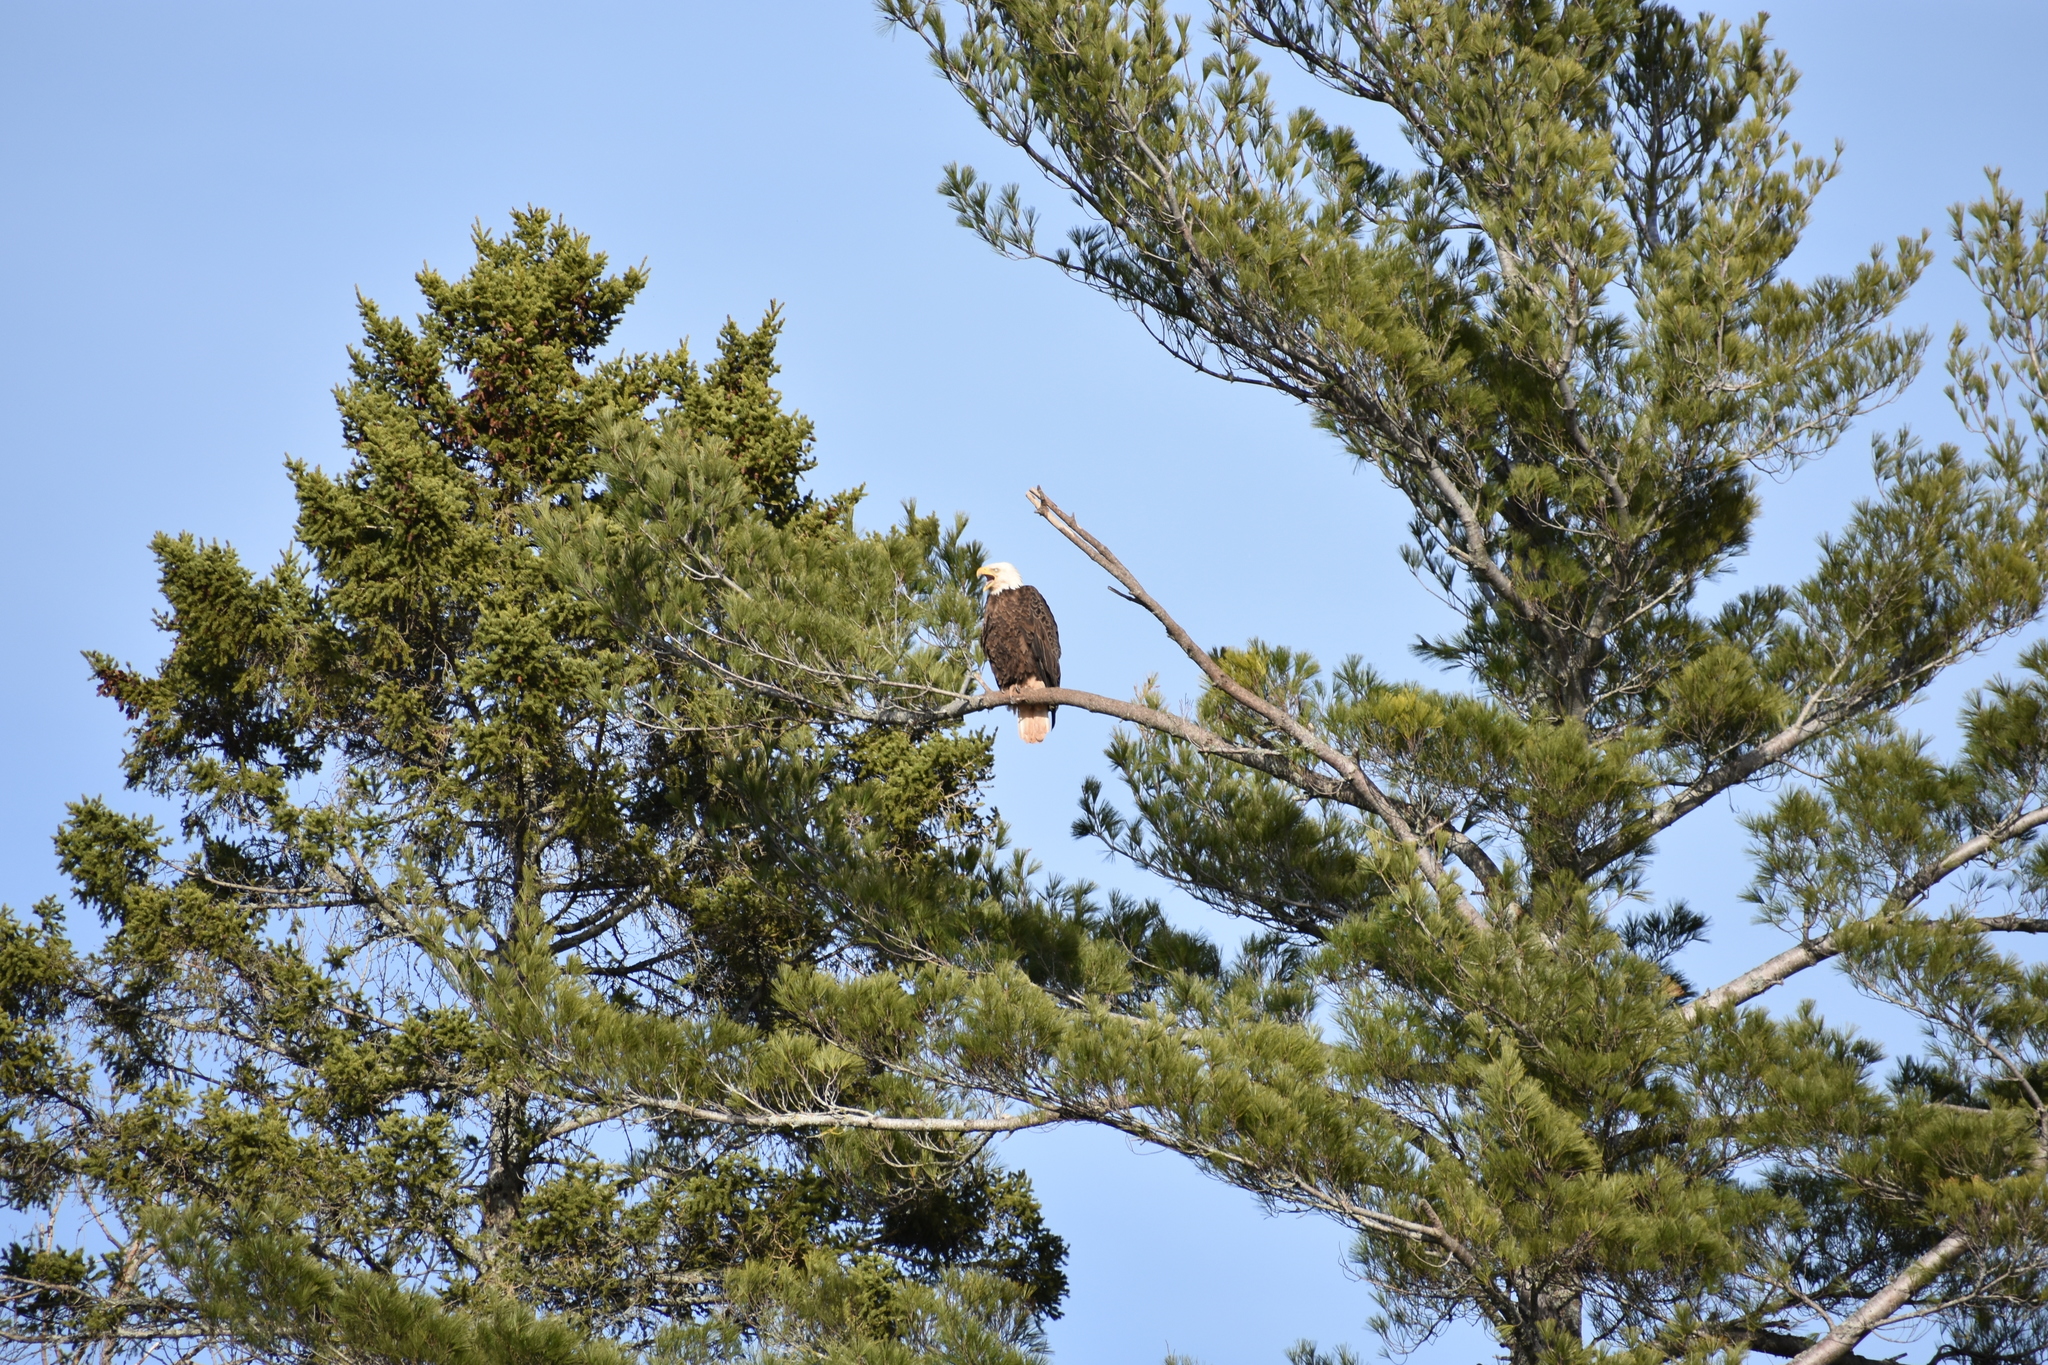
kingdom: Animalia
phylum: Chordata
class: Aves
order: Accipitriformes
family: Accipitridae
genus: Haliaeetus
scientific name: Haliaeetus leucocephalus
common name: Bald eagle
